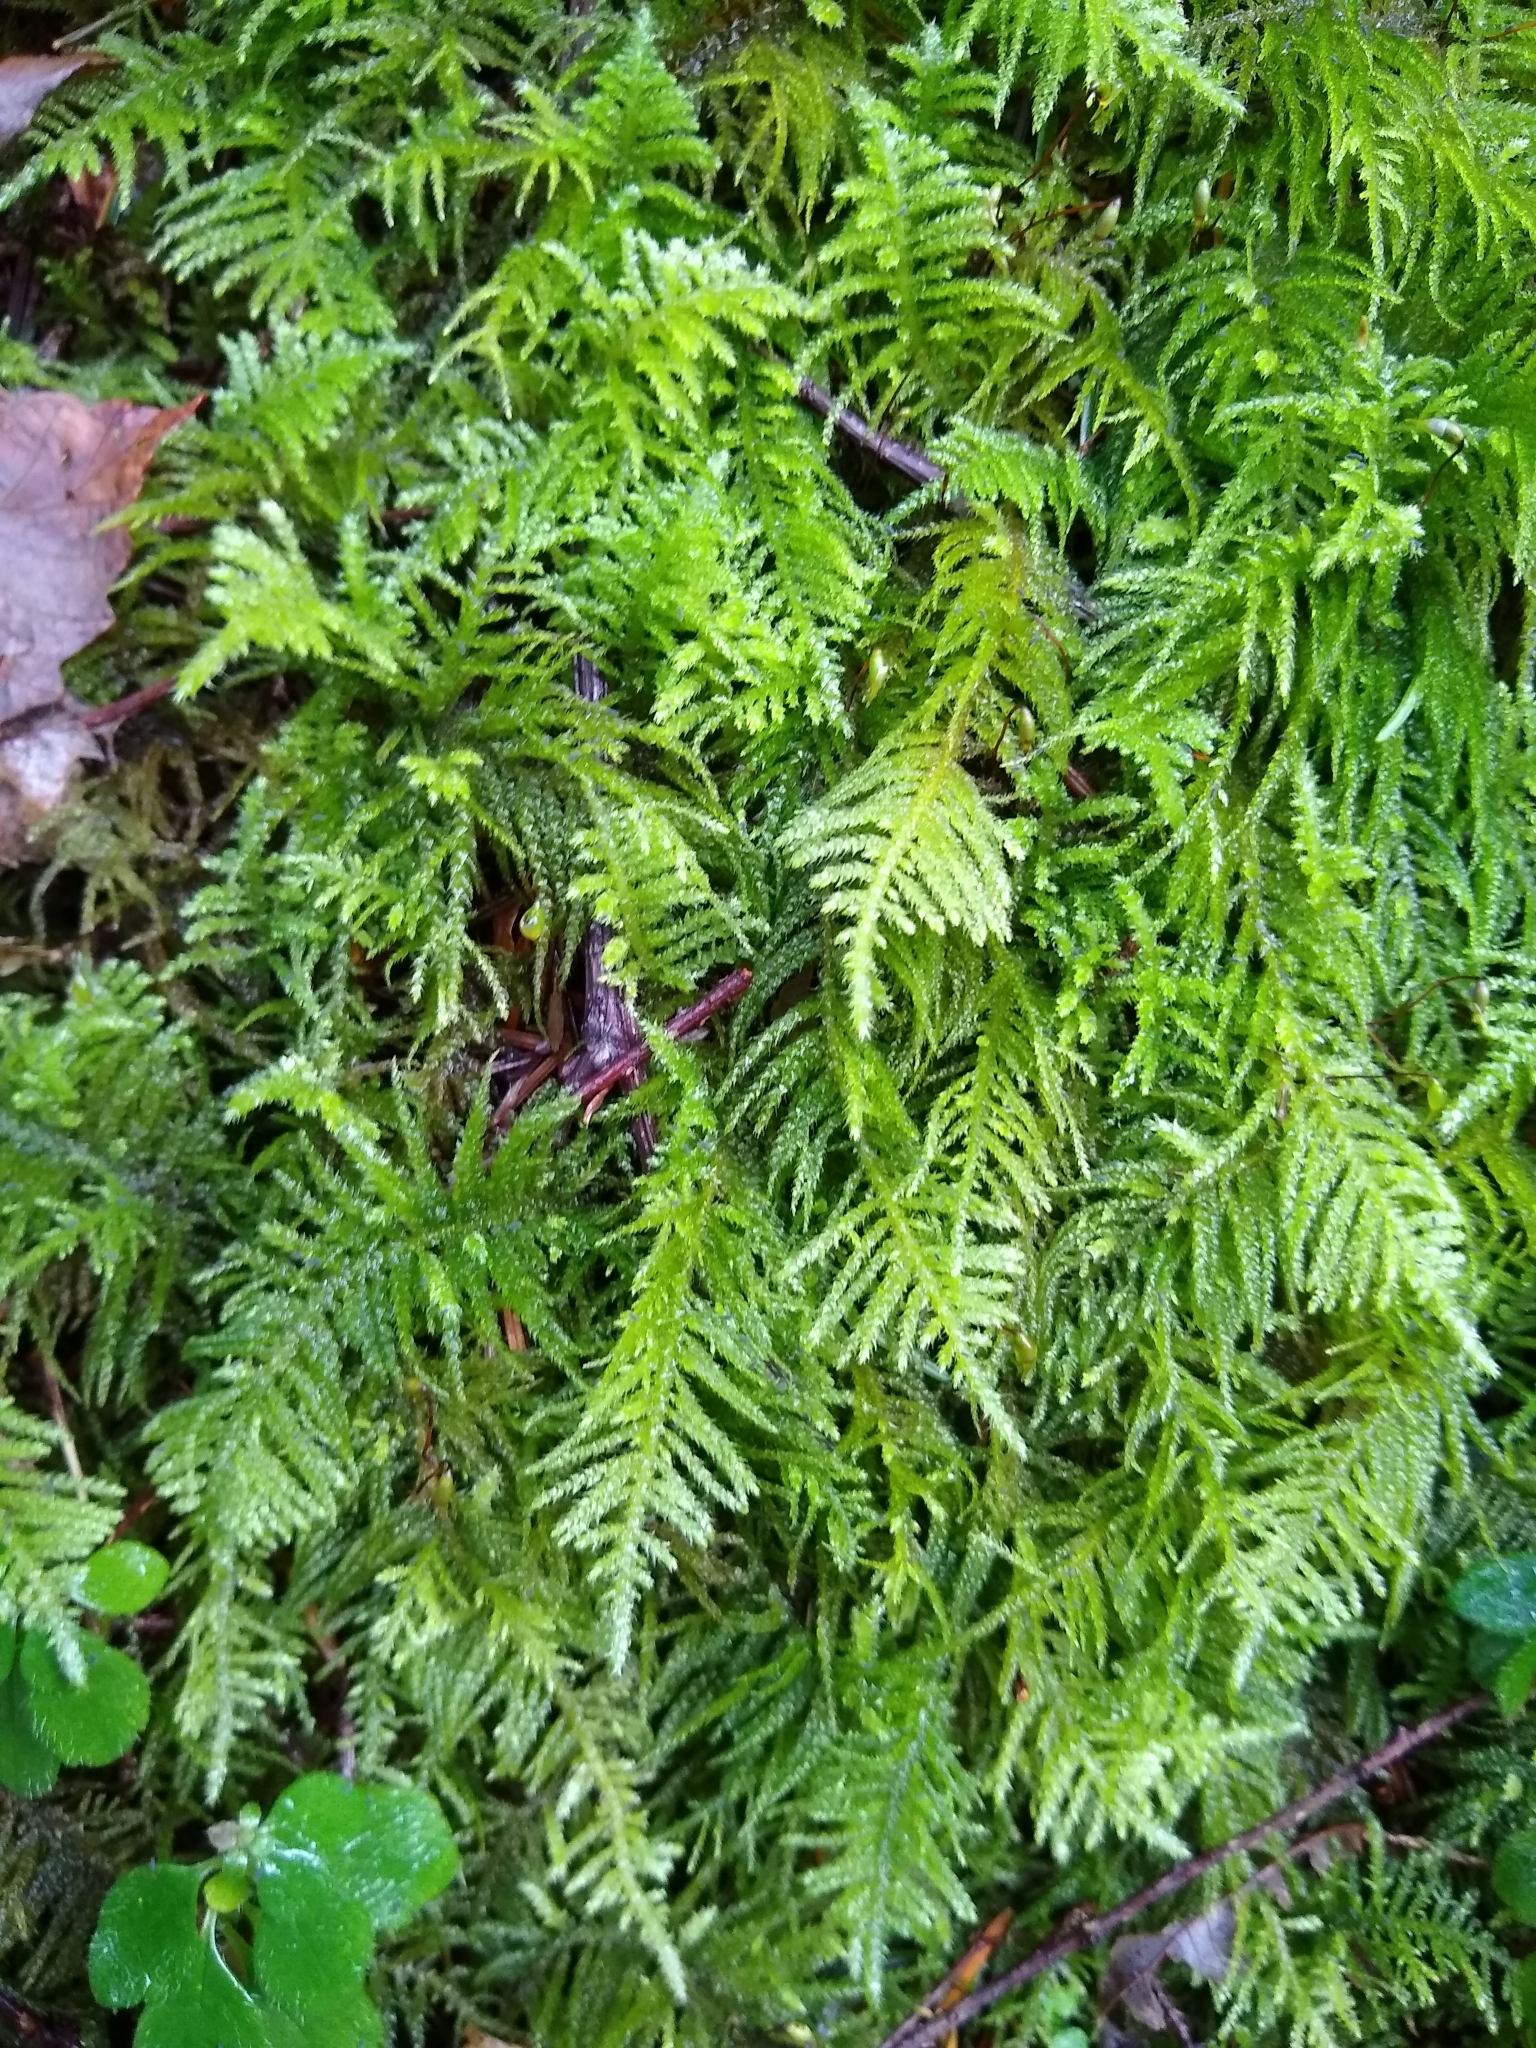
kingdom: Plantae
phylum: Bryophyta
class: Bryopsida
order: Hypnales
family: Brachytheciaceae
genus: Kindbergia
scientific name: Kindbergia oregana
